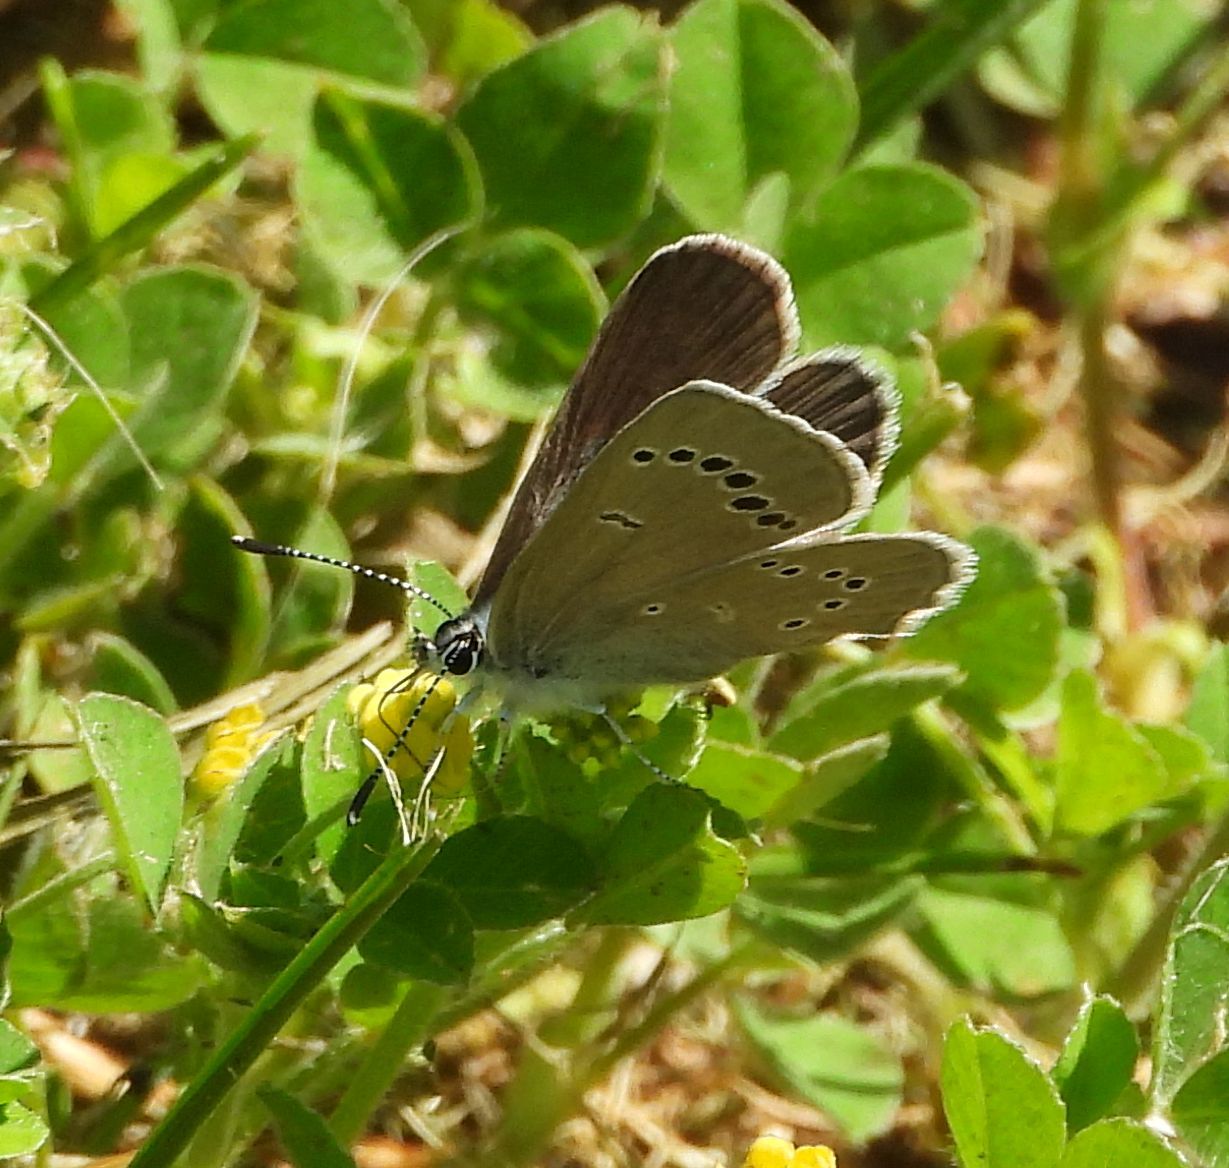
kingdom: Animalia
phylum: Arthropoda
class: Insecta
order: Lepidoptera
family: Lycaenidae
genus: Glaucopsyche
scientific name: Glaucopsyche lygdamus
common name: Silvery blue
